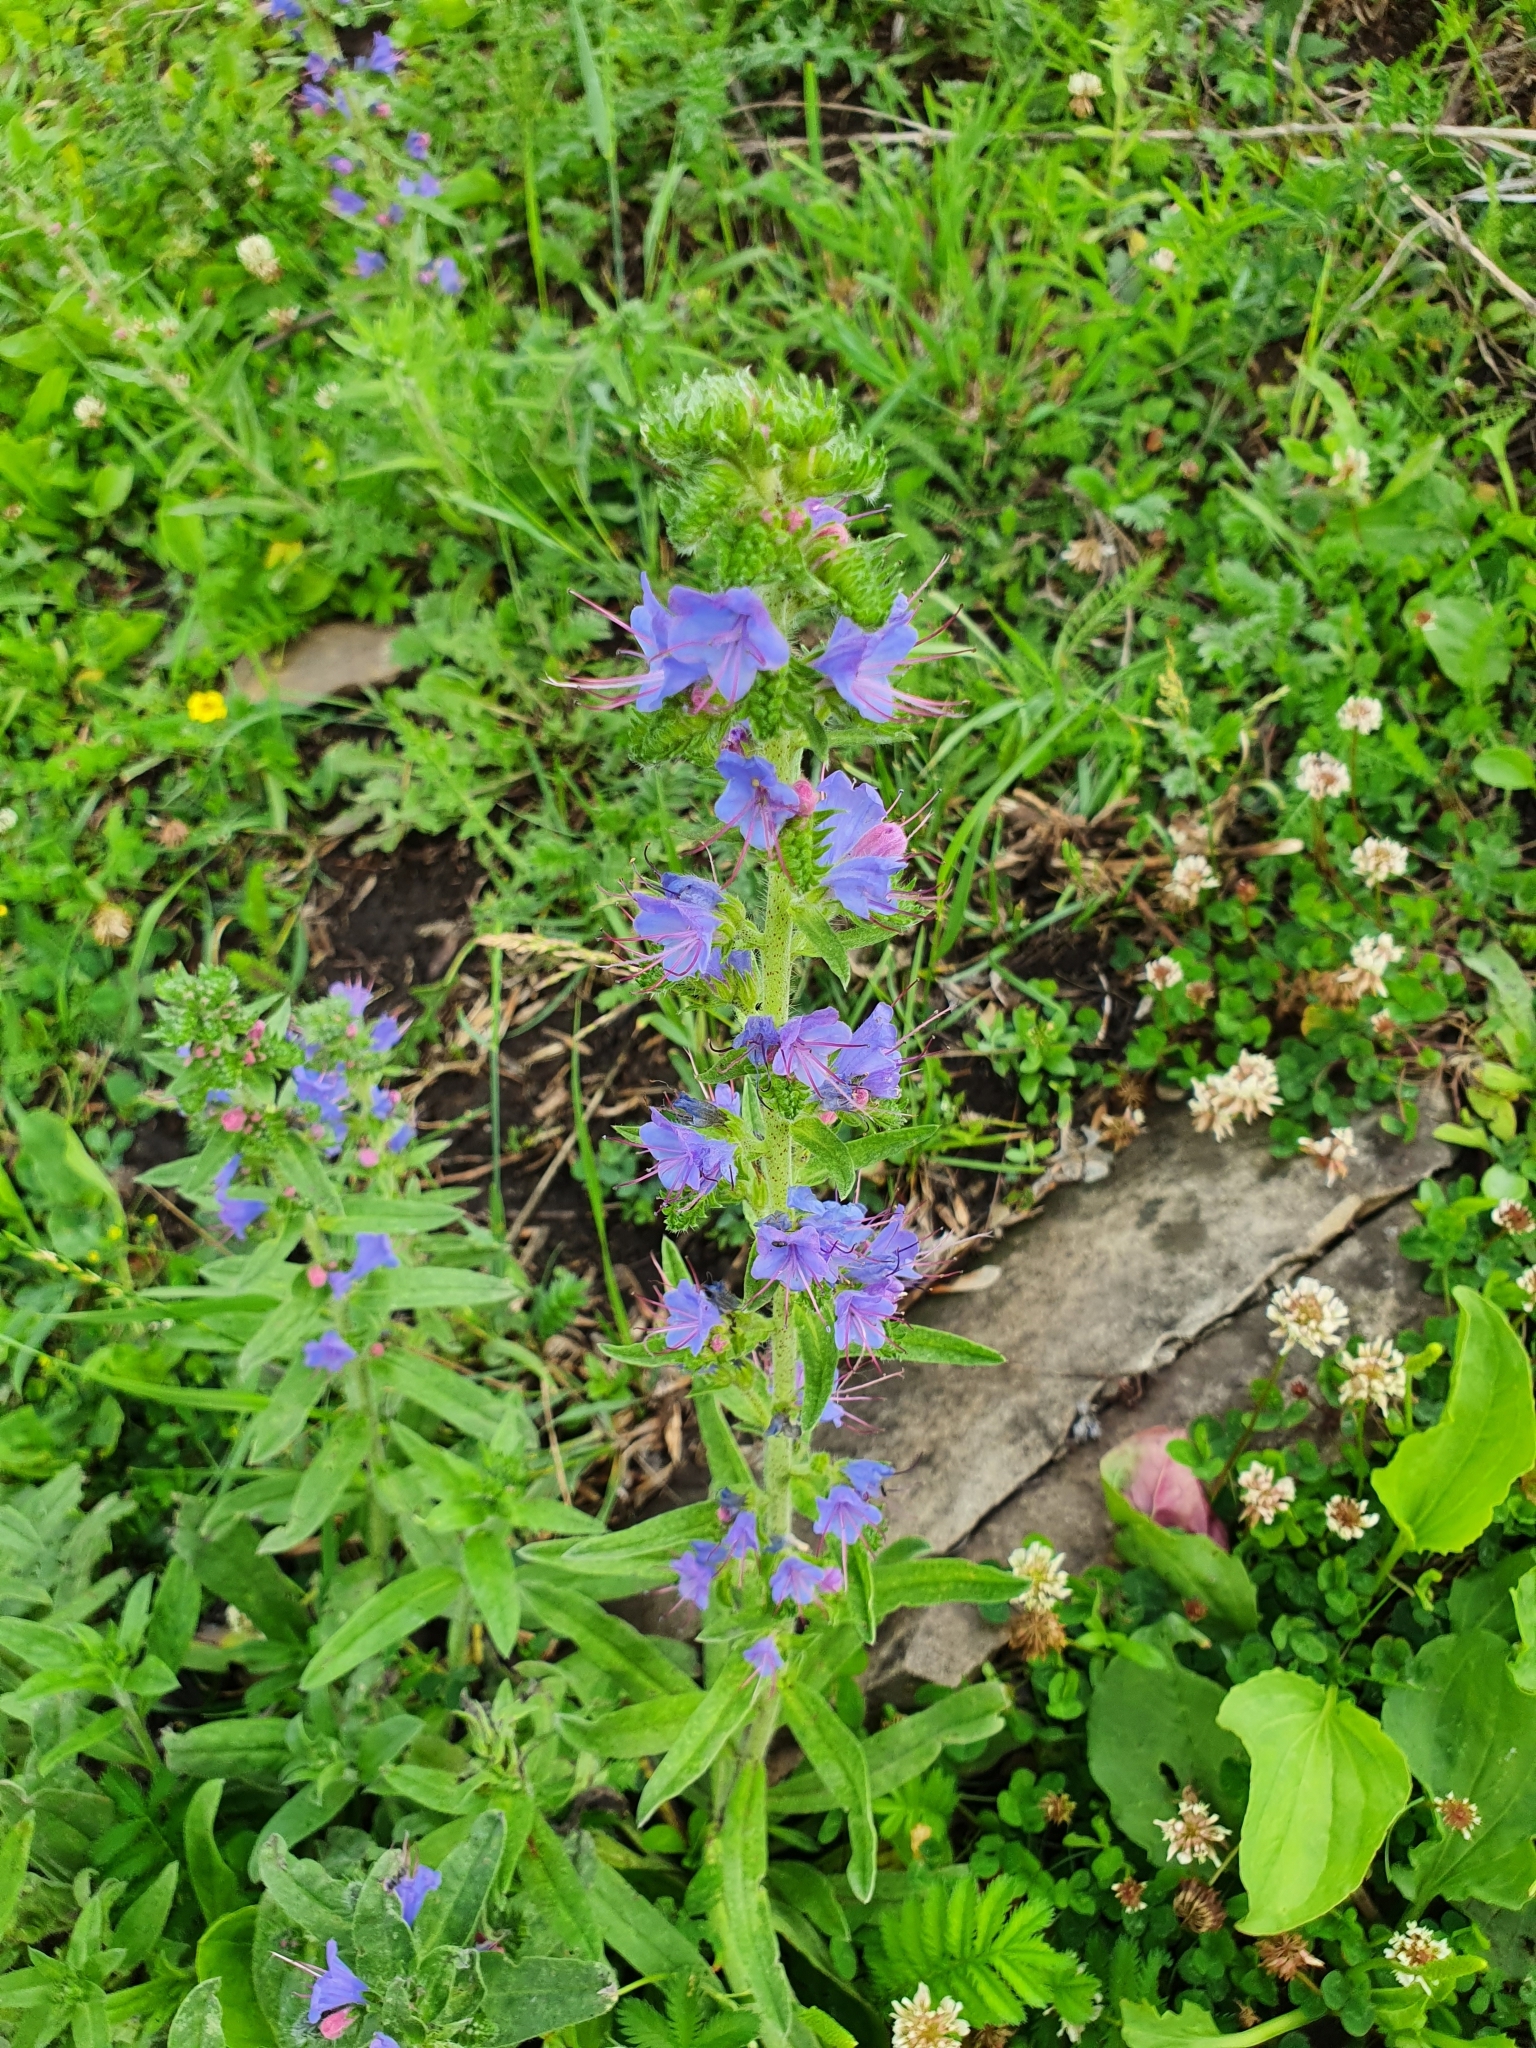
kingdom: Plantae
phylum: Tracheophyta
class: Magnoliopsida
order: Boraginales
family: Boraginaceae
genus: Echium
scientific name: Echium vulgare
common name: Common viper's bugloss
